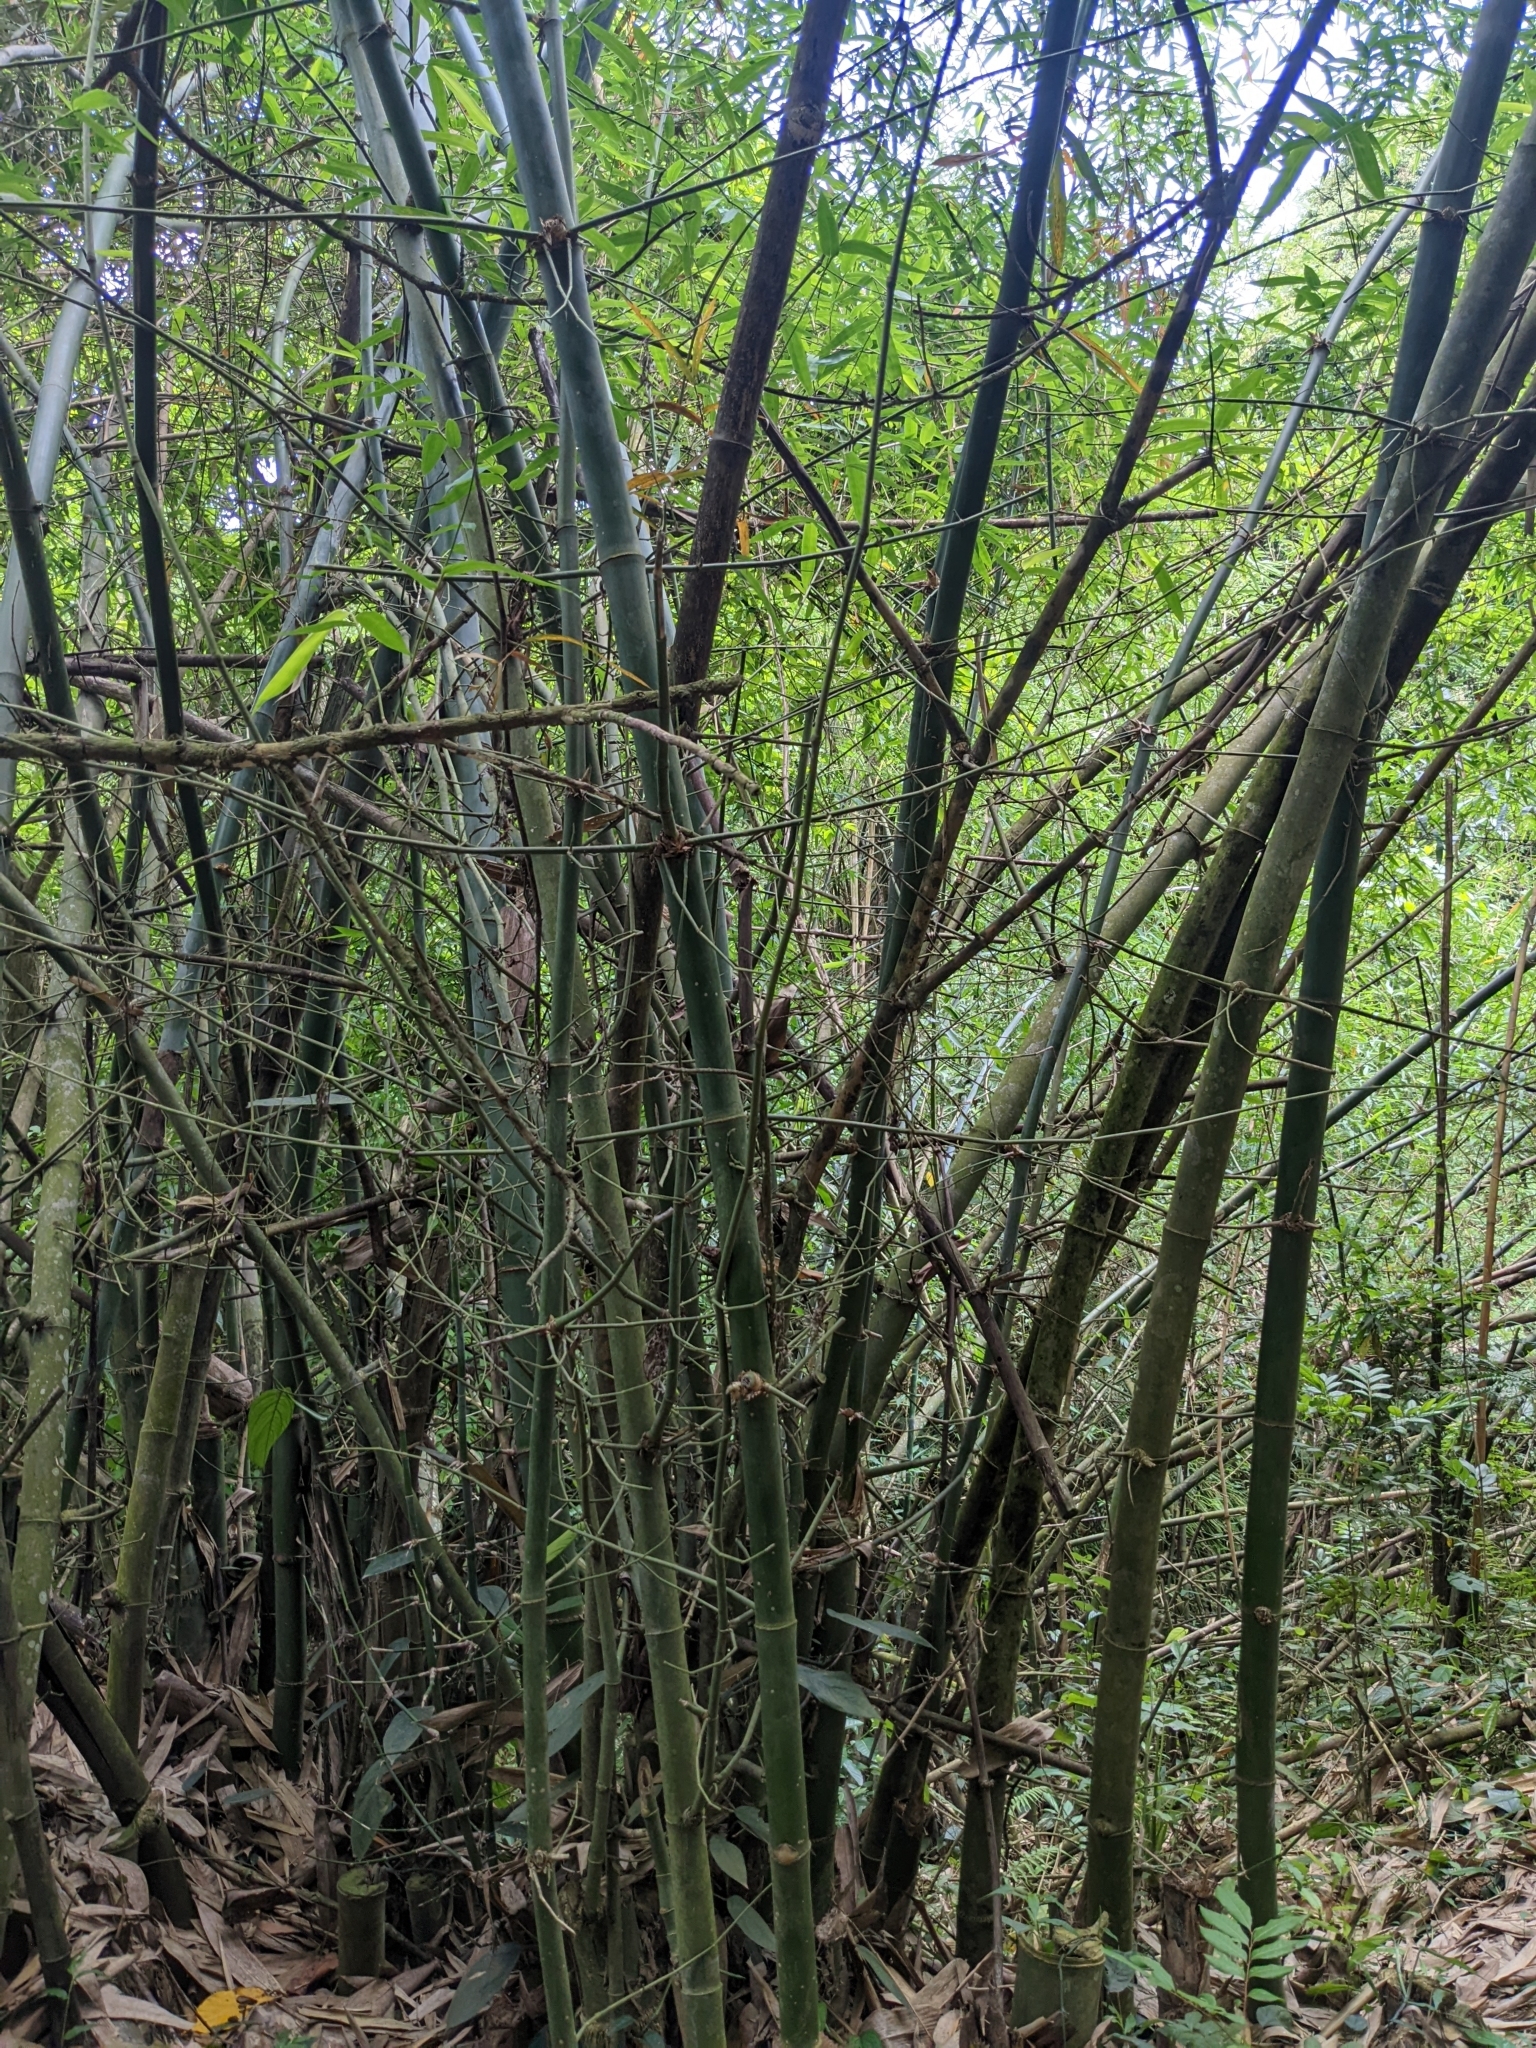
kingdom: Plantae
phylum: Tracheophyta
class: Liliopsida
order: Poales
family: Poaceae
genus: Bambusa
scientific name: Bambusa spinosa
